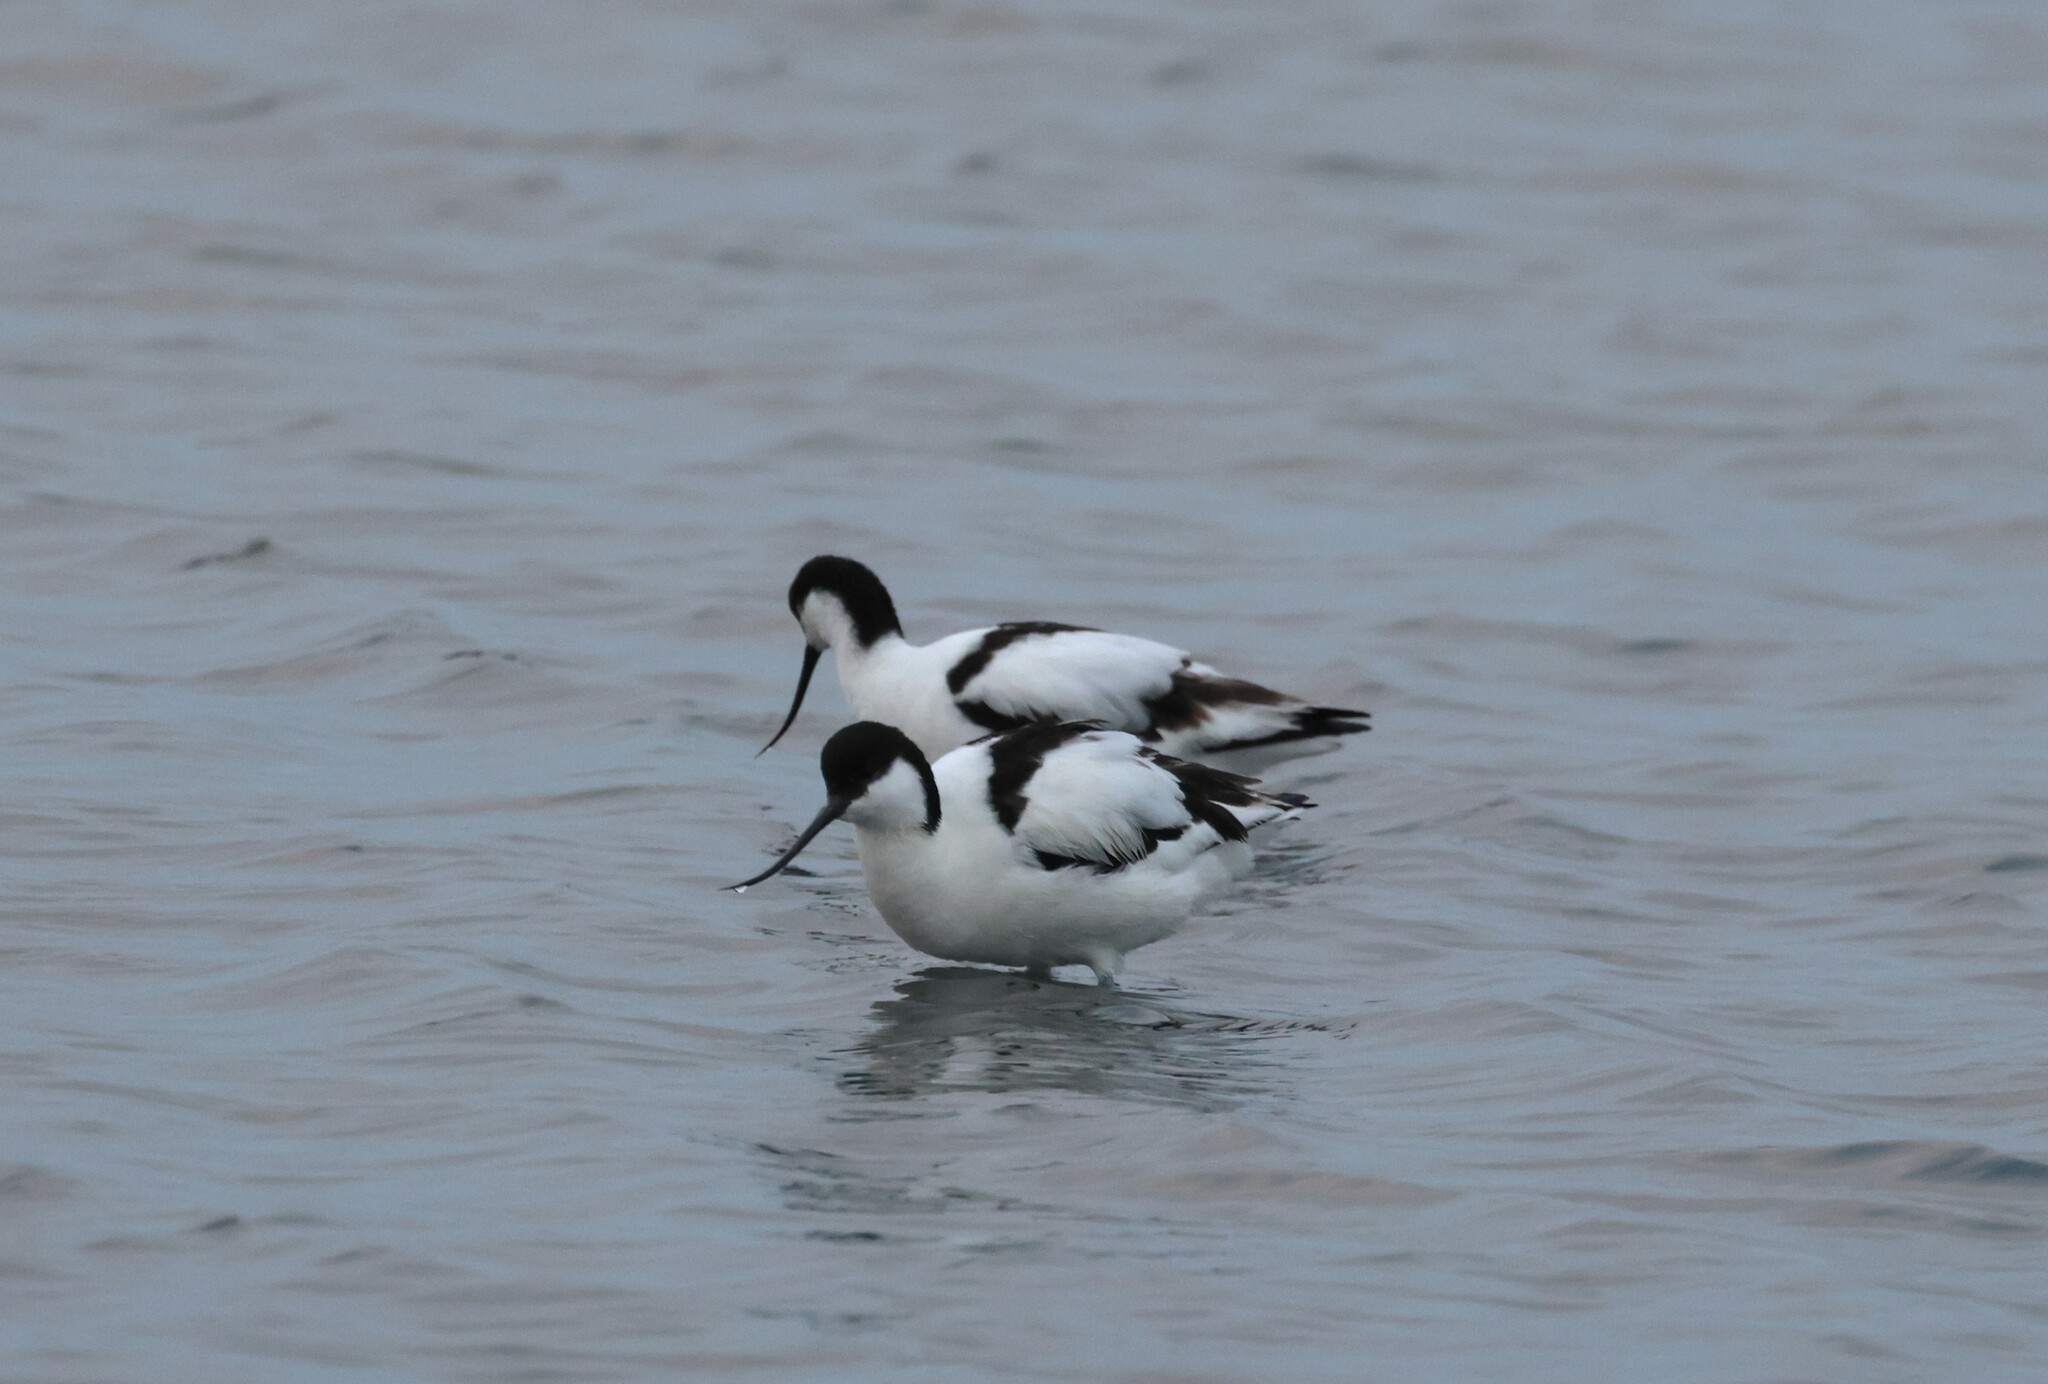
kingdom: Animalia
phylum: Chordata
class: Aves
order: Charadriiformes
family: Recurvirostridae
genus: Recurvirostra
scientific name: Recurvirostra avosetta
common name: Pied avocet
